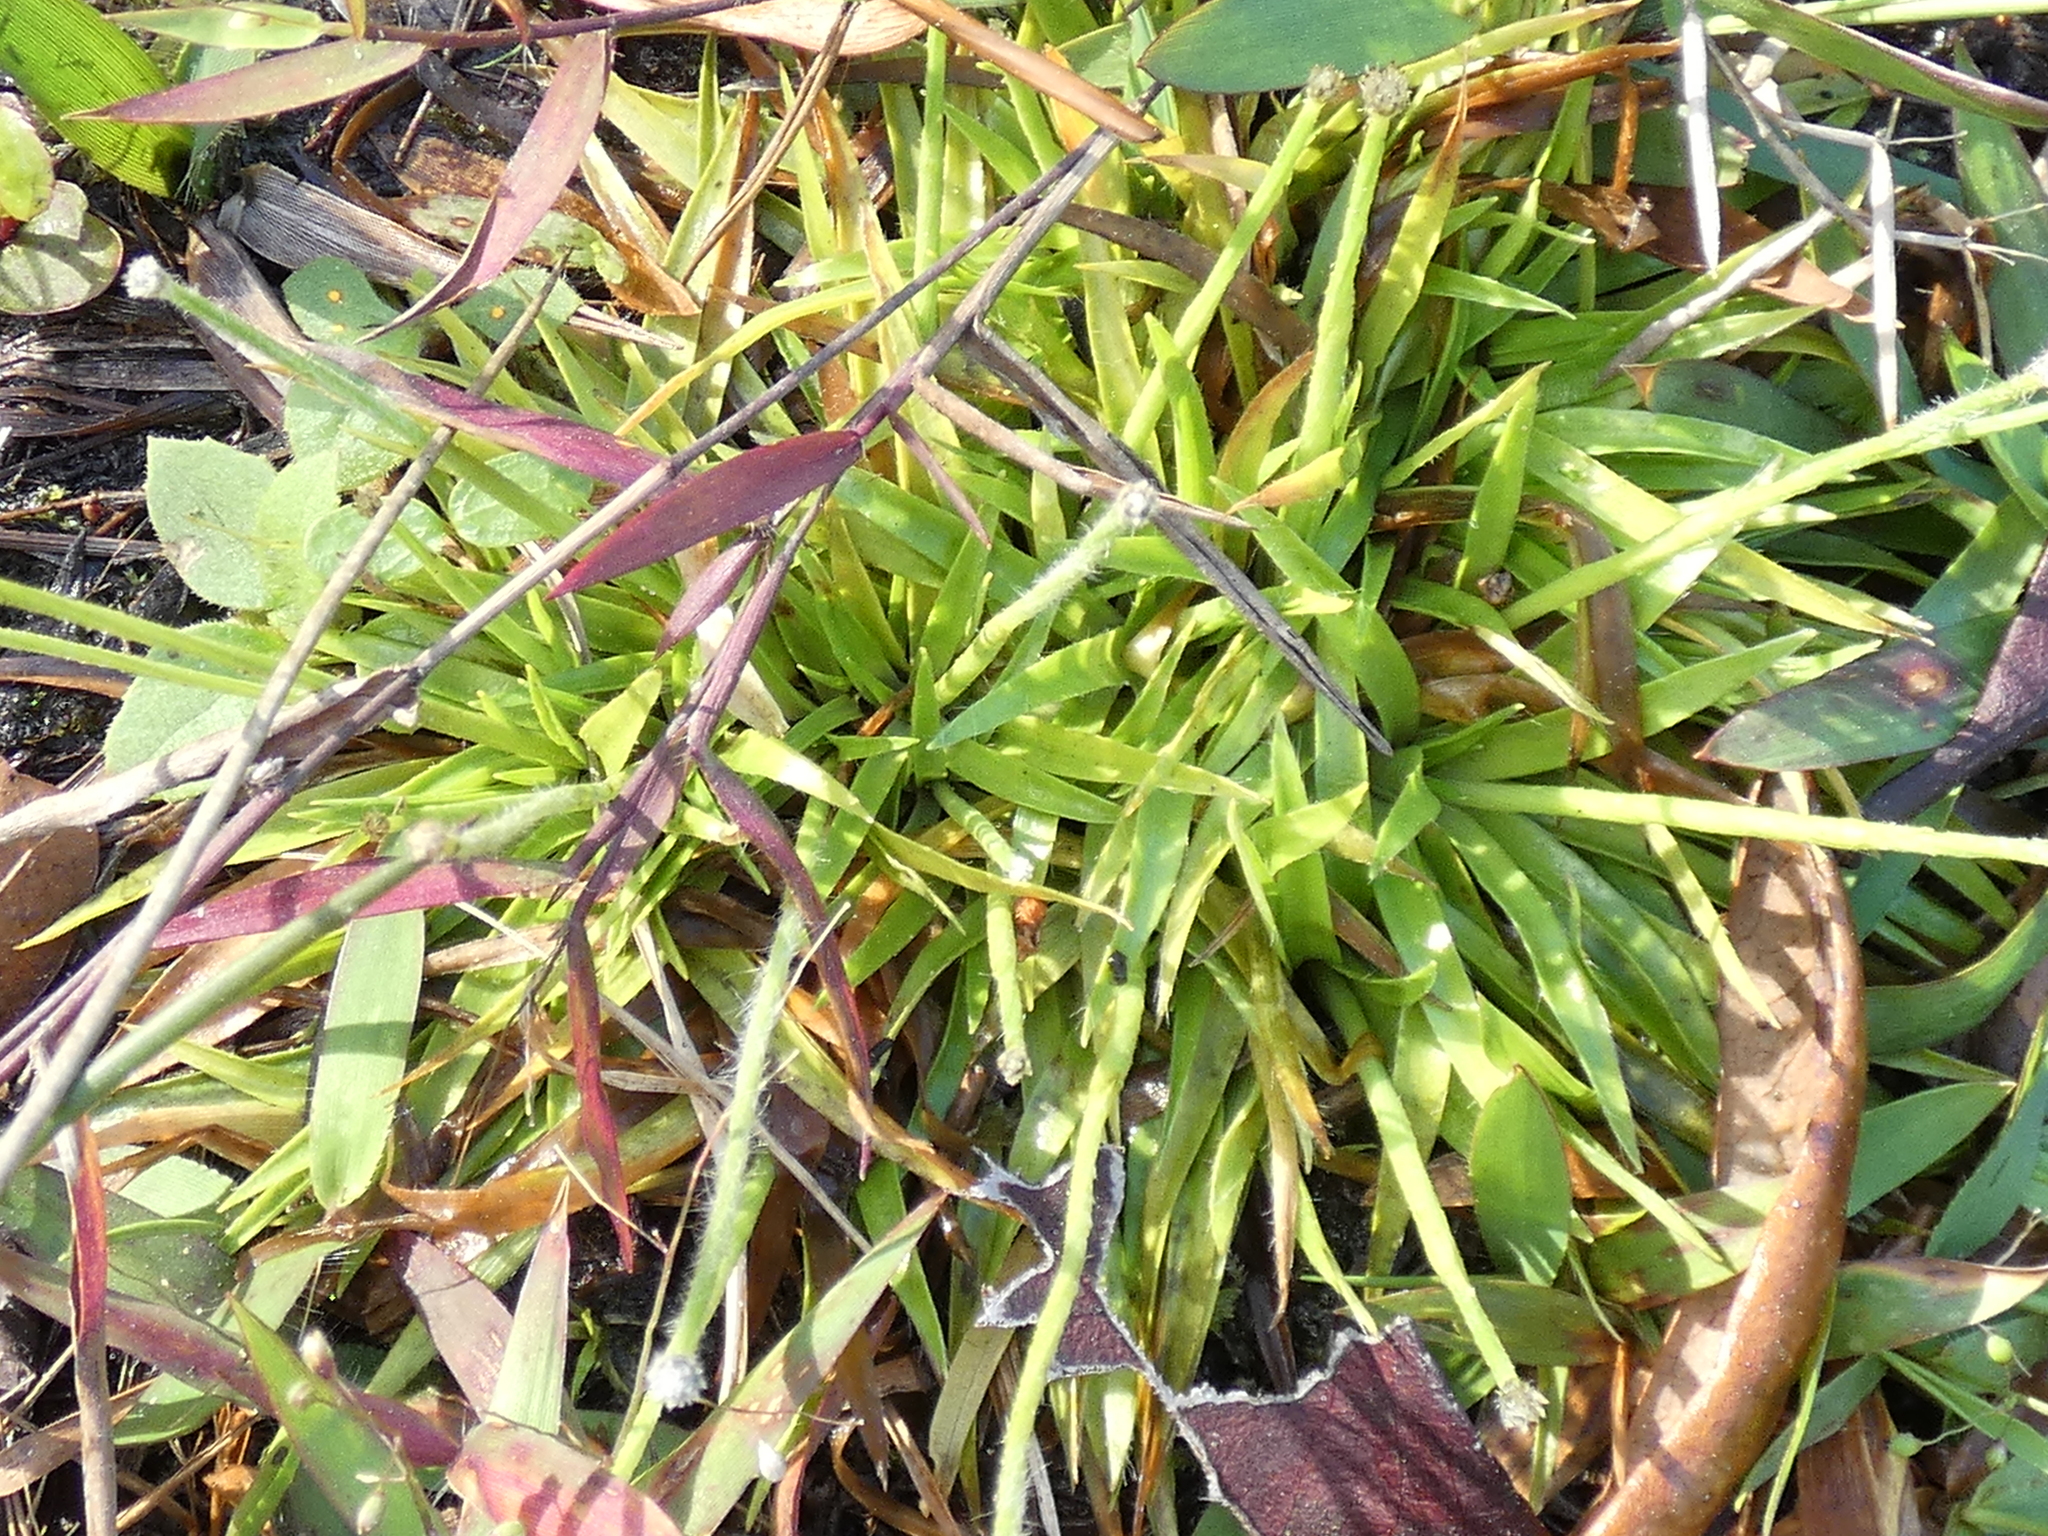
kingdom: Plantae
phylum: Tracheophyta
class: Liliopsida
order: Poales
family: Eriocaulaceae
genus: Paepalanthus
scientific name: Paepalanthus anceps
